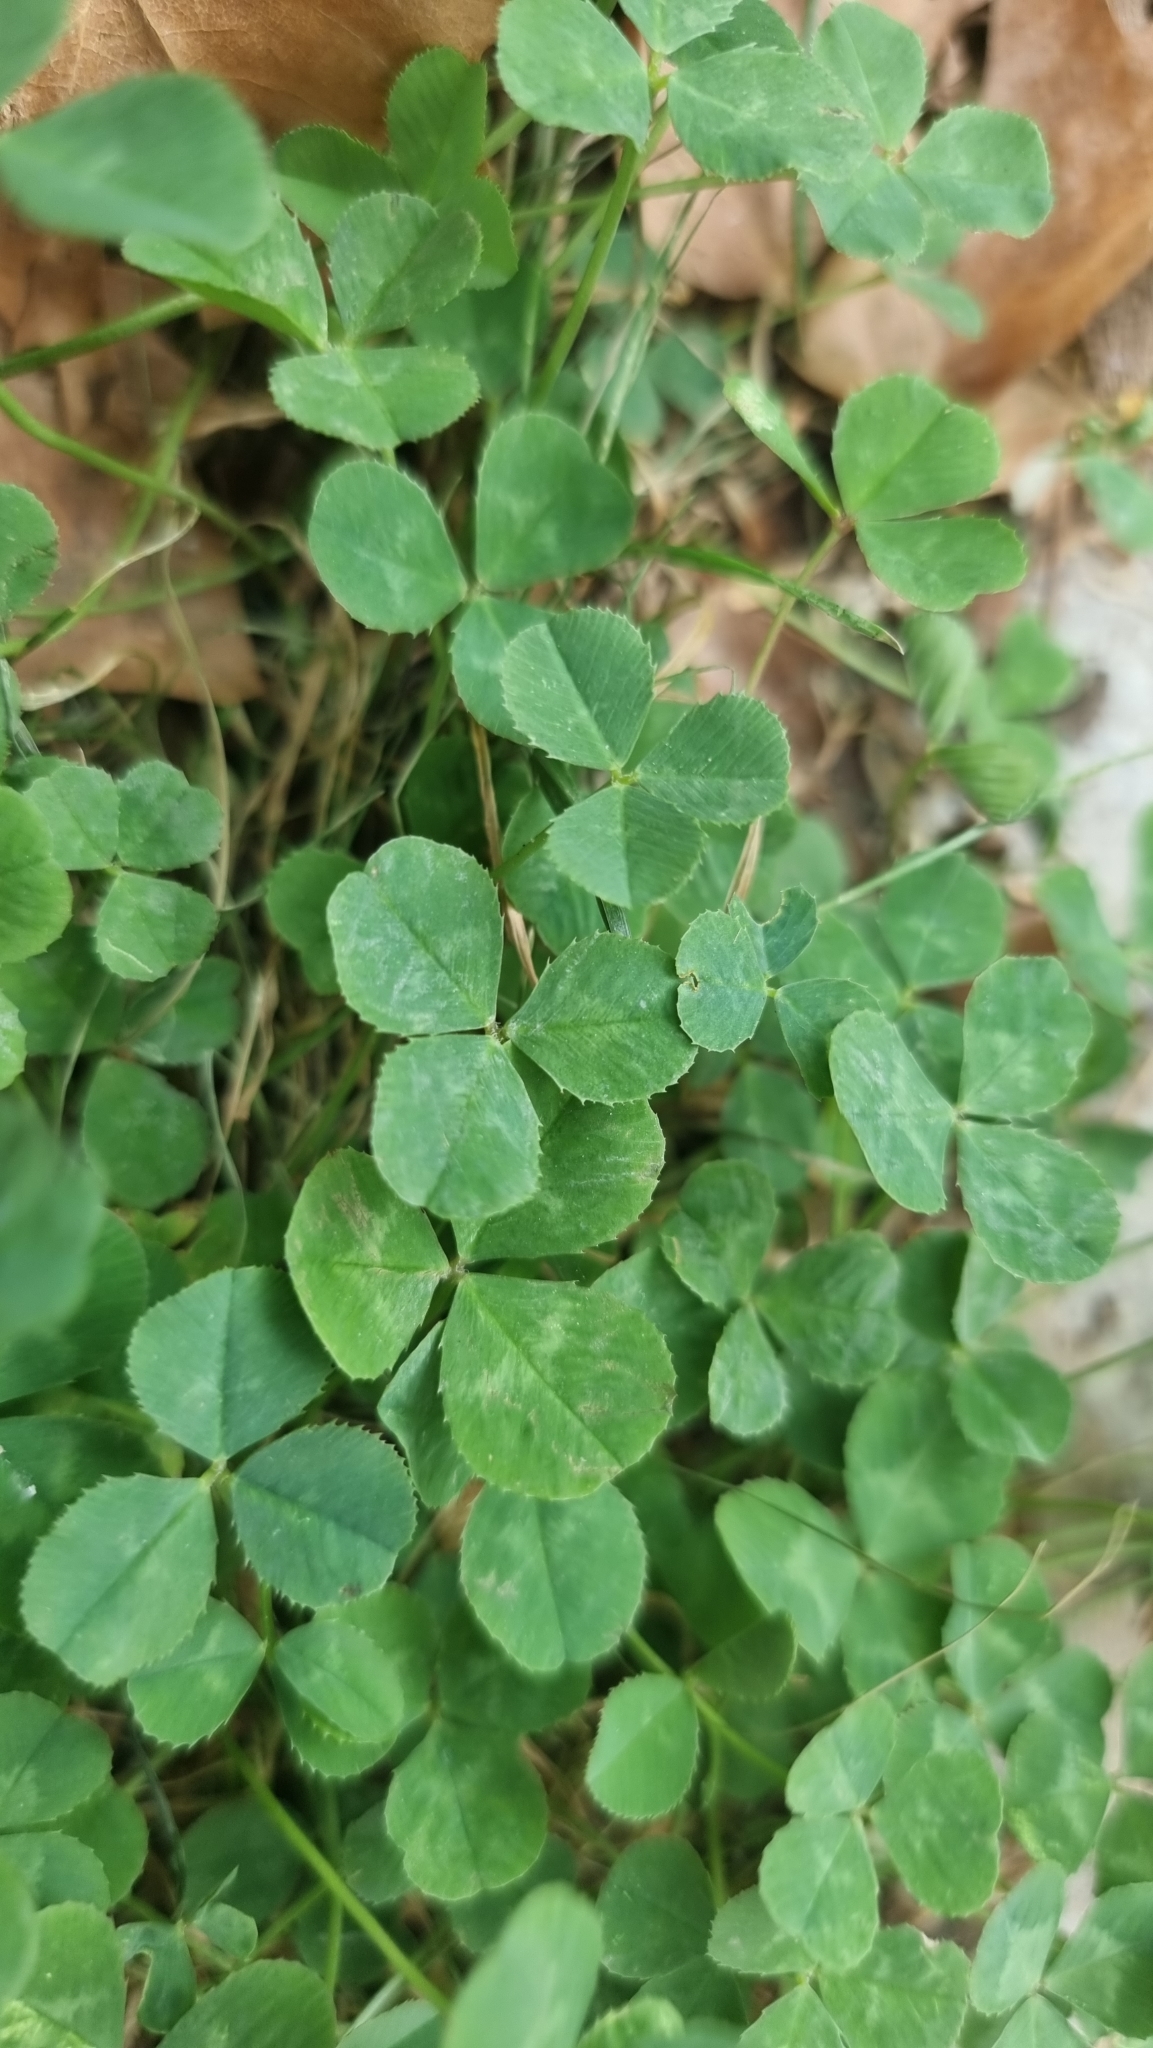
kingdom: Plantae
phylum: Tracheophyta
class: Magnoliopsida
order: Fabales
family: Fabaceae
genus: Trifolium
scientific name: Trifolium repens
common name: White clover
